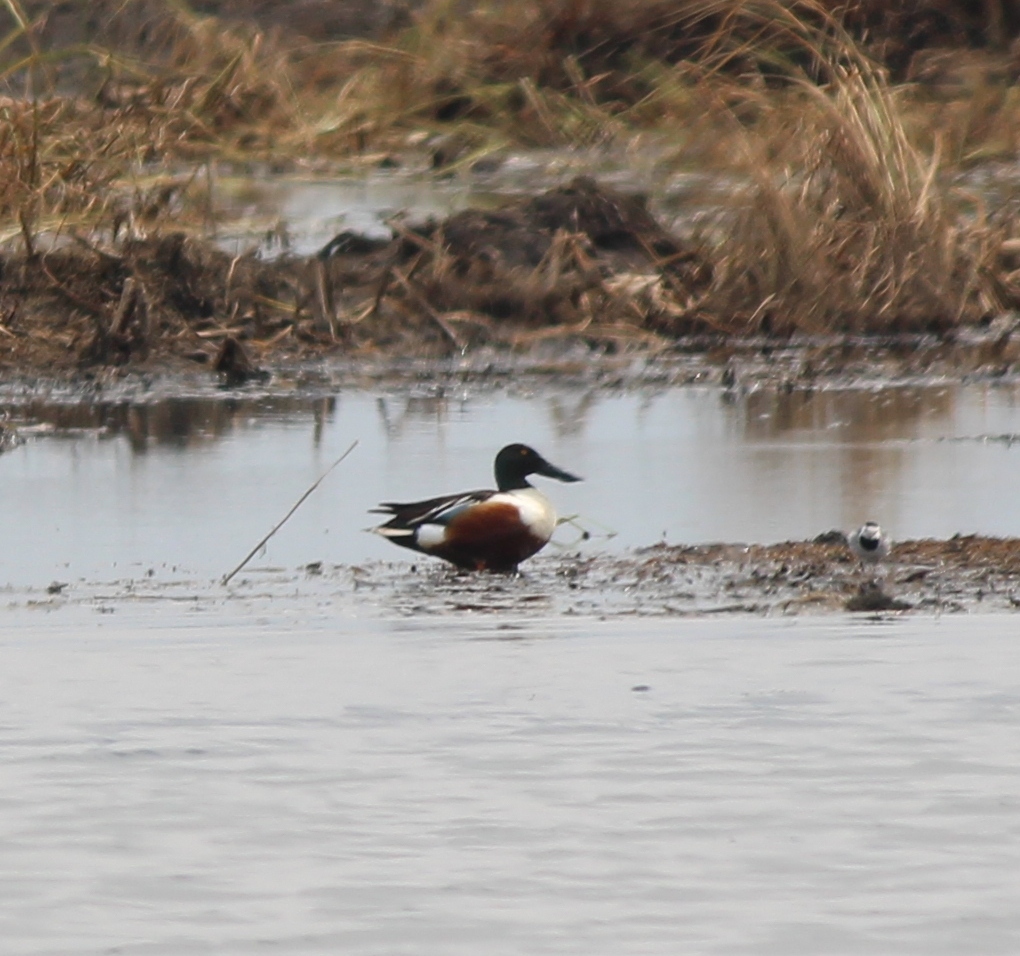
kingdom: Animalia
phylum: Chordata
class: Aves
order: Anseriformes
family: Anatidae
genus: Spatula
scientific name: Spatula clypeata
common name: Northern shoveler
